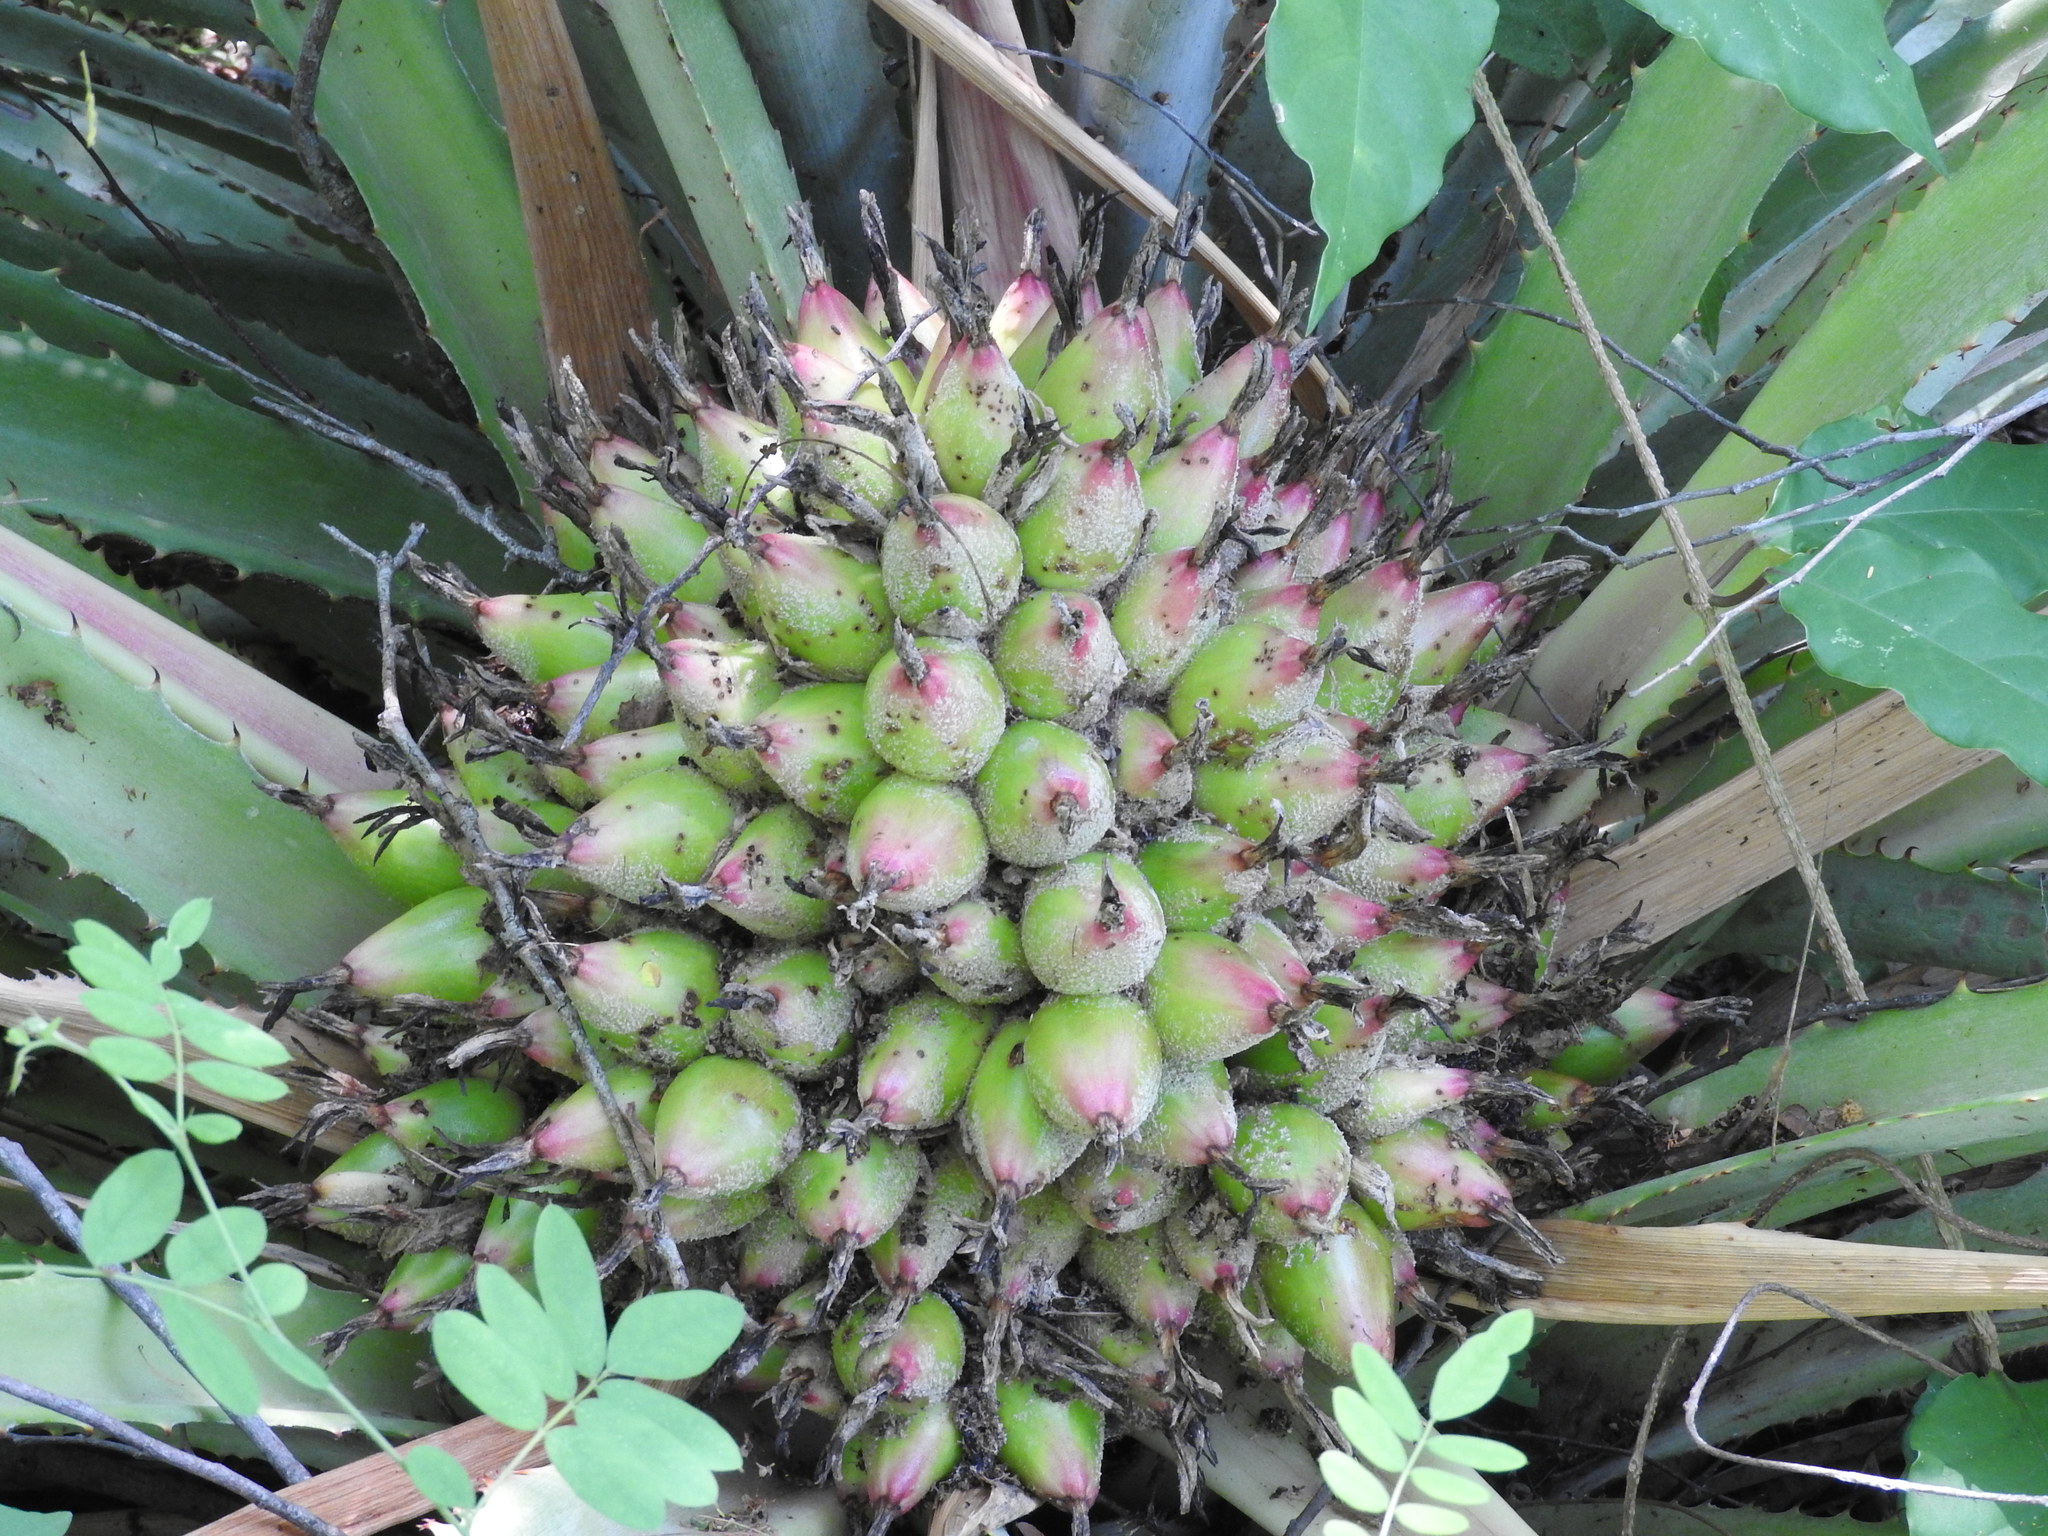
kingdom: Plantae
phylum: Tracheophyta
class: Liliopsida
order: Poales
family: Bromeliaceae
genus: Bromelia
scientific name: Bromelia hemisphaerica
